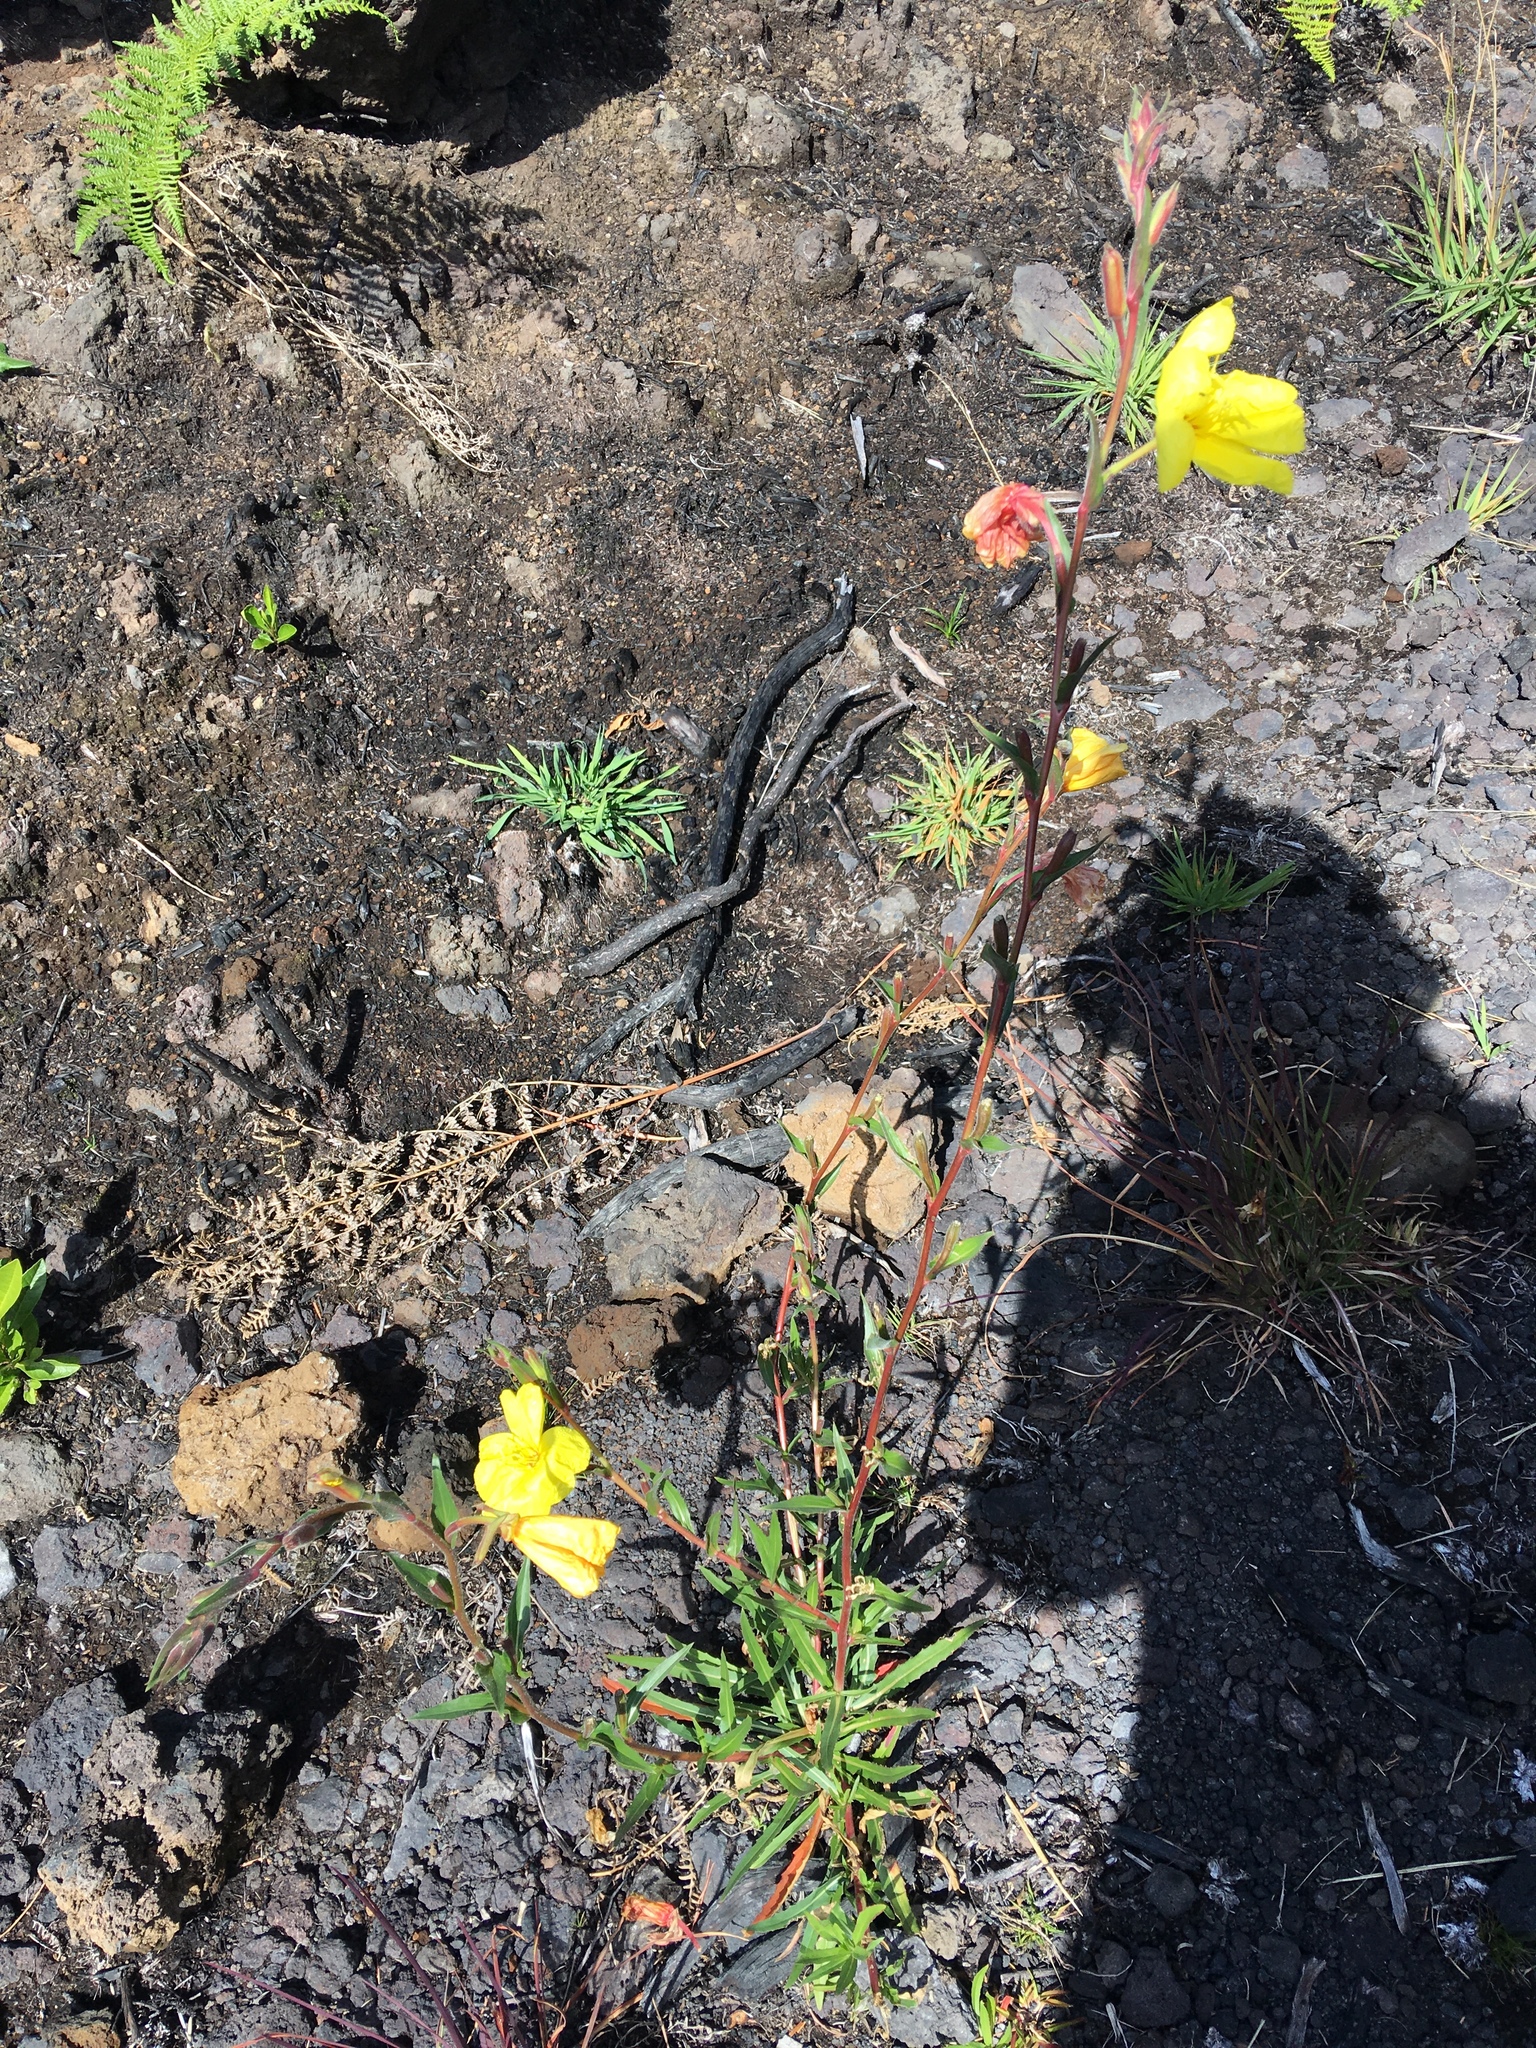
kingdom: Plantae
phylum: Tracheophyta
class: Magnoliopsida
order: Myrtales
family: Onagraceae
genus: Oenothera
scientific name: Oenothera stricta
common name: Fragrant evening-primrose
